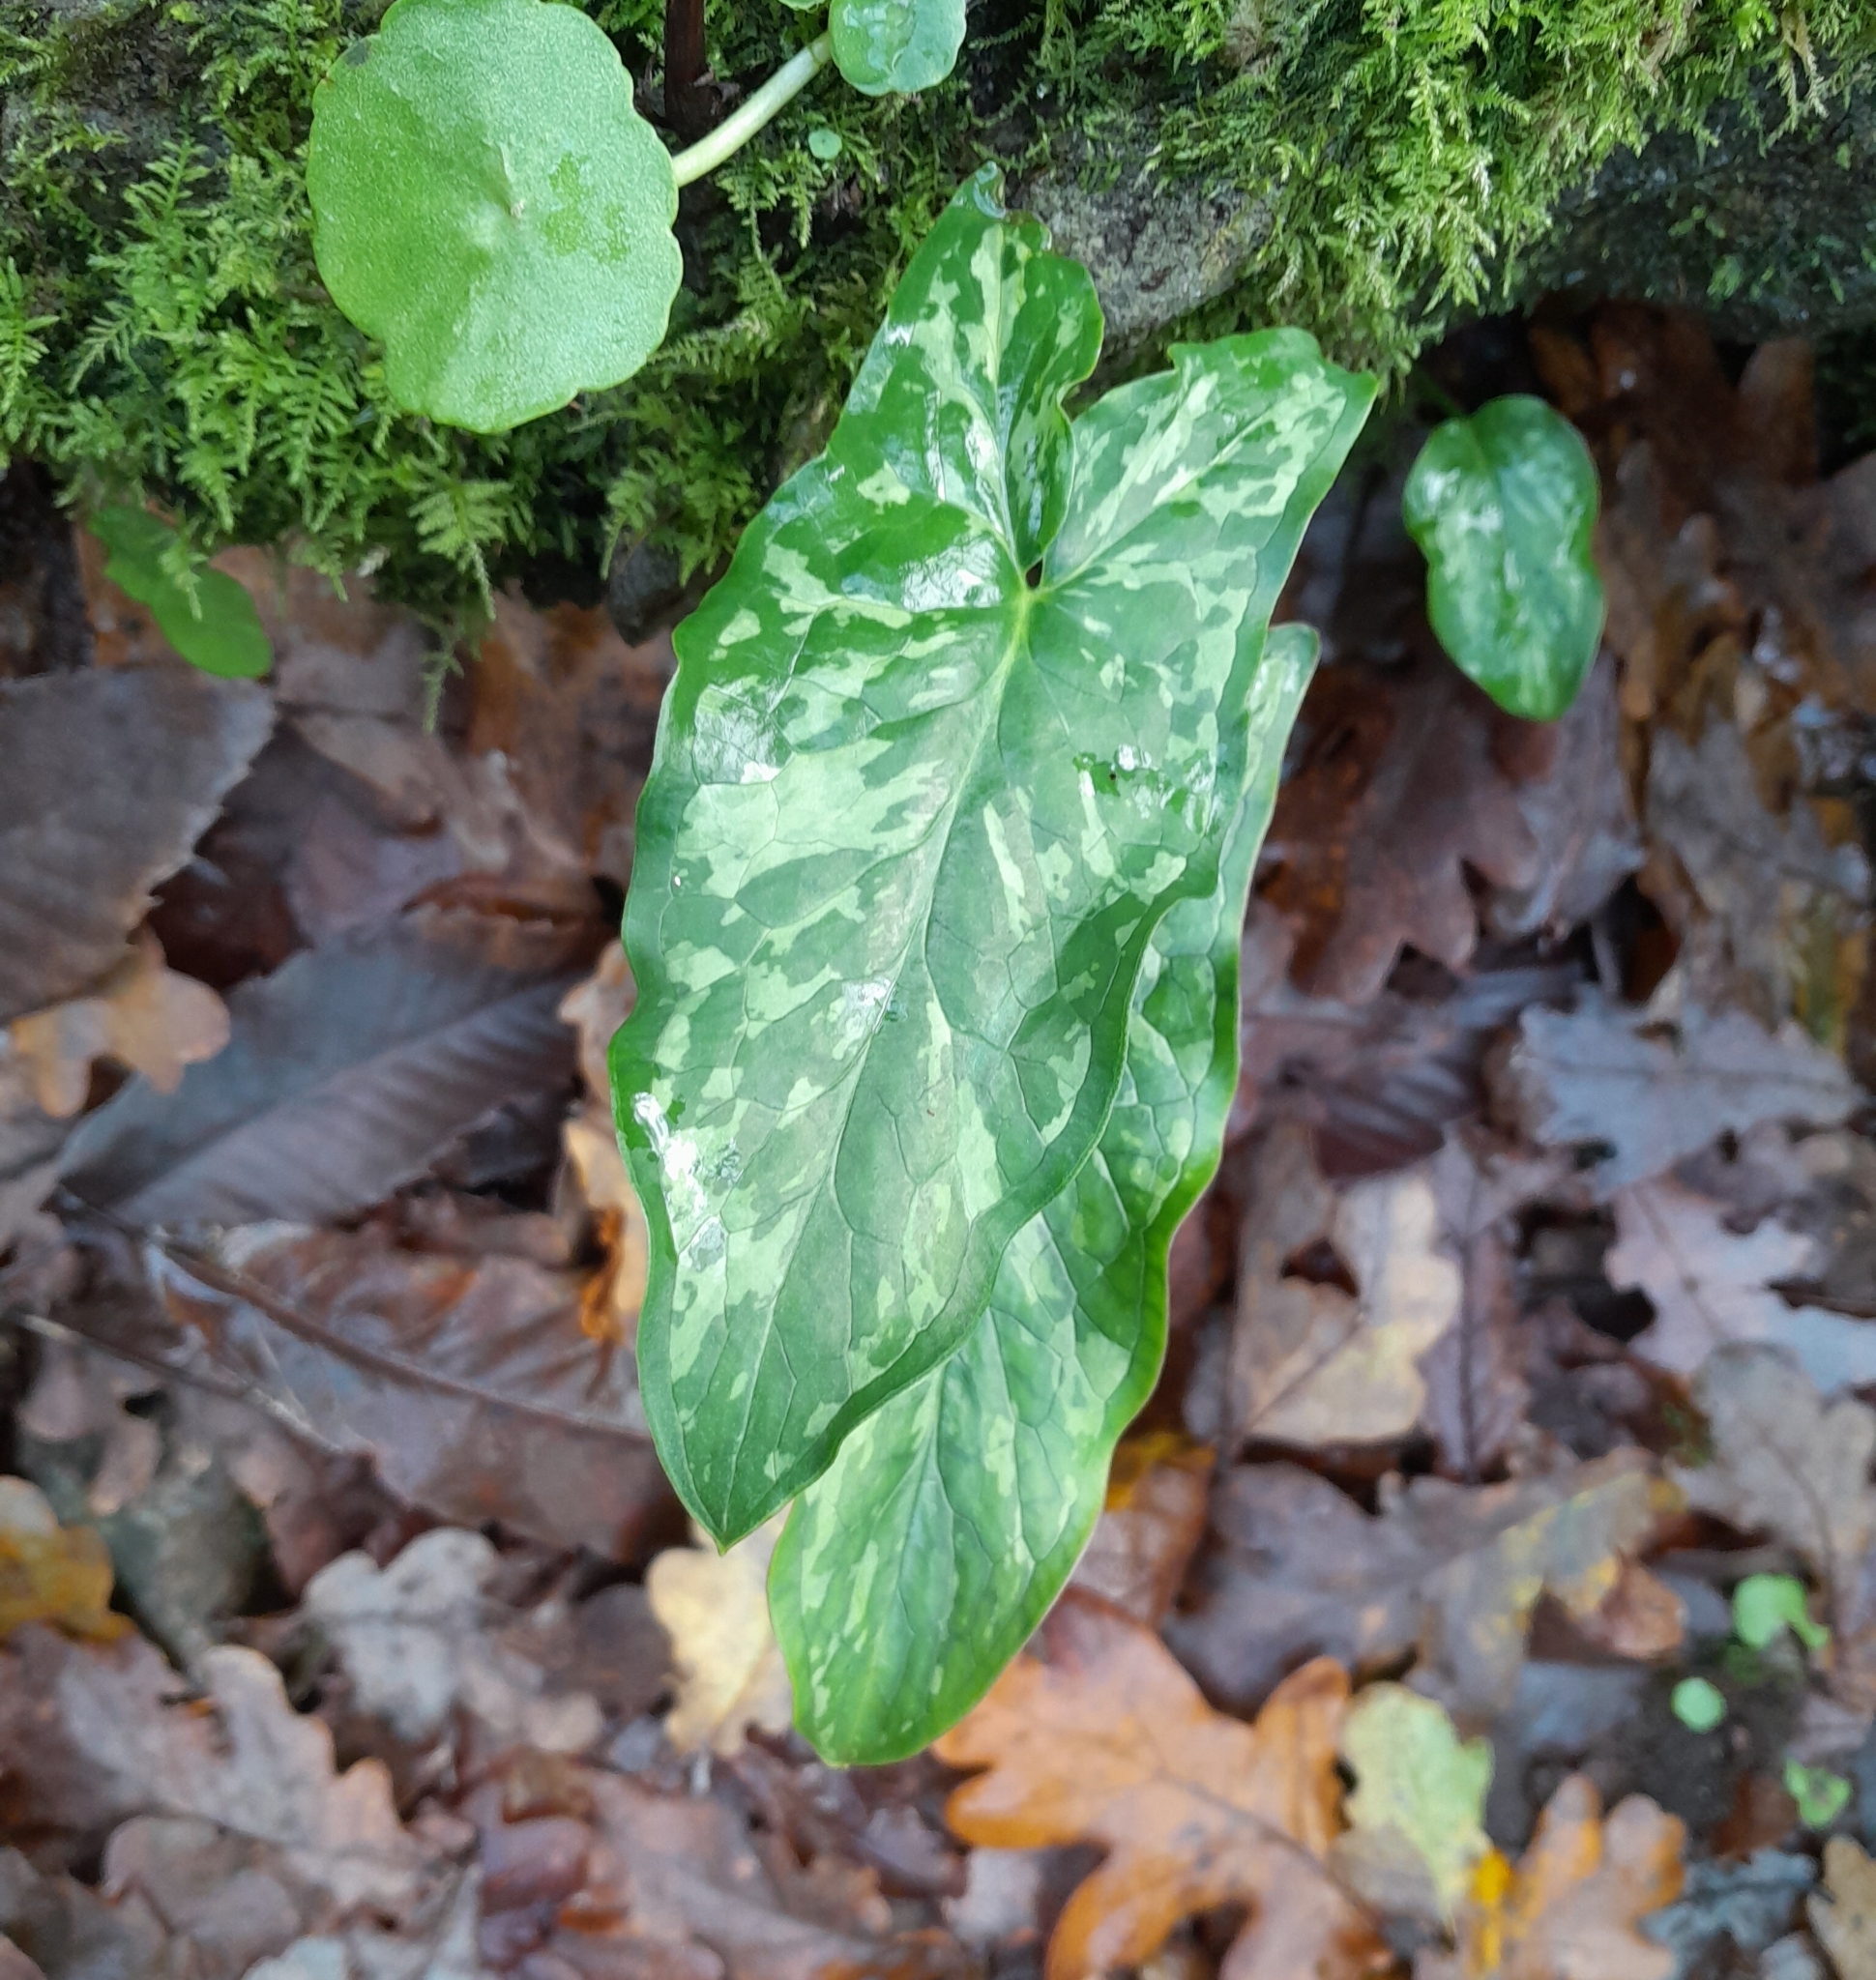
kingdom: Plantae
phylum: Tracheophyta
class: Liliopsida
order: Alismatales
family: Araceae
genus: Arum
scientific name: Arum italicum
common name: Italian lords-and-ladies
